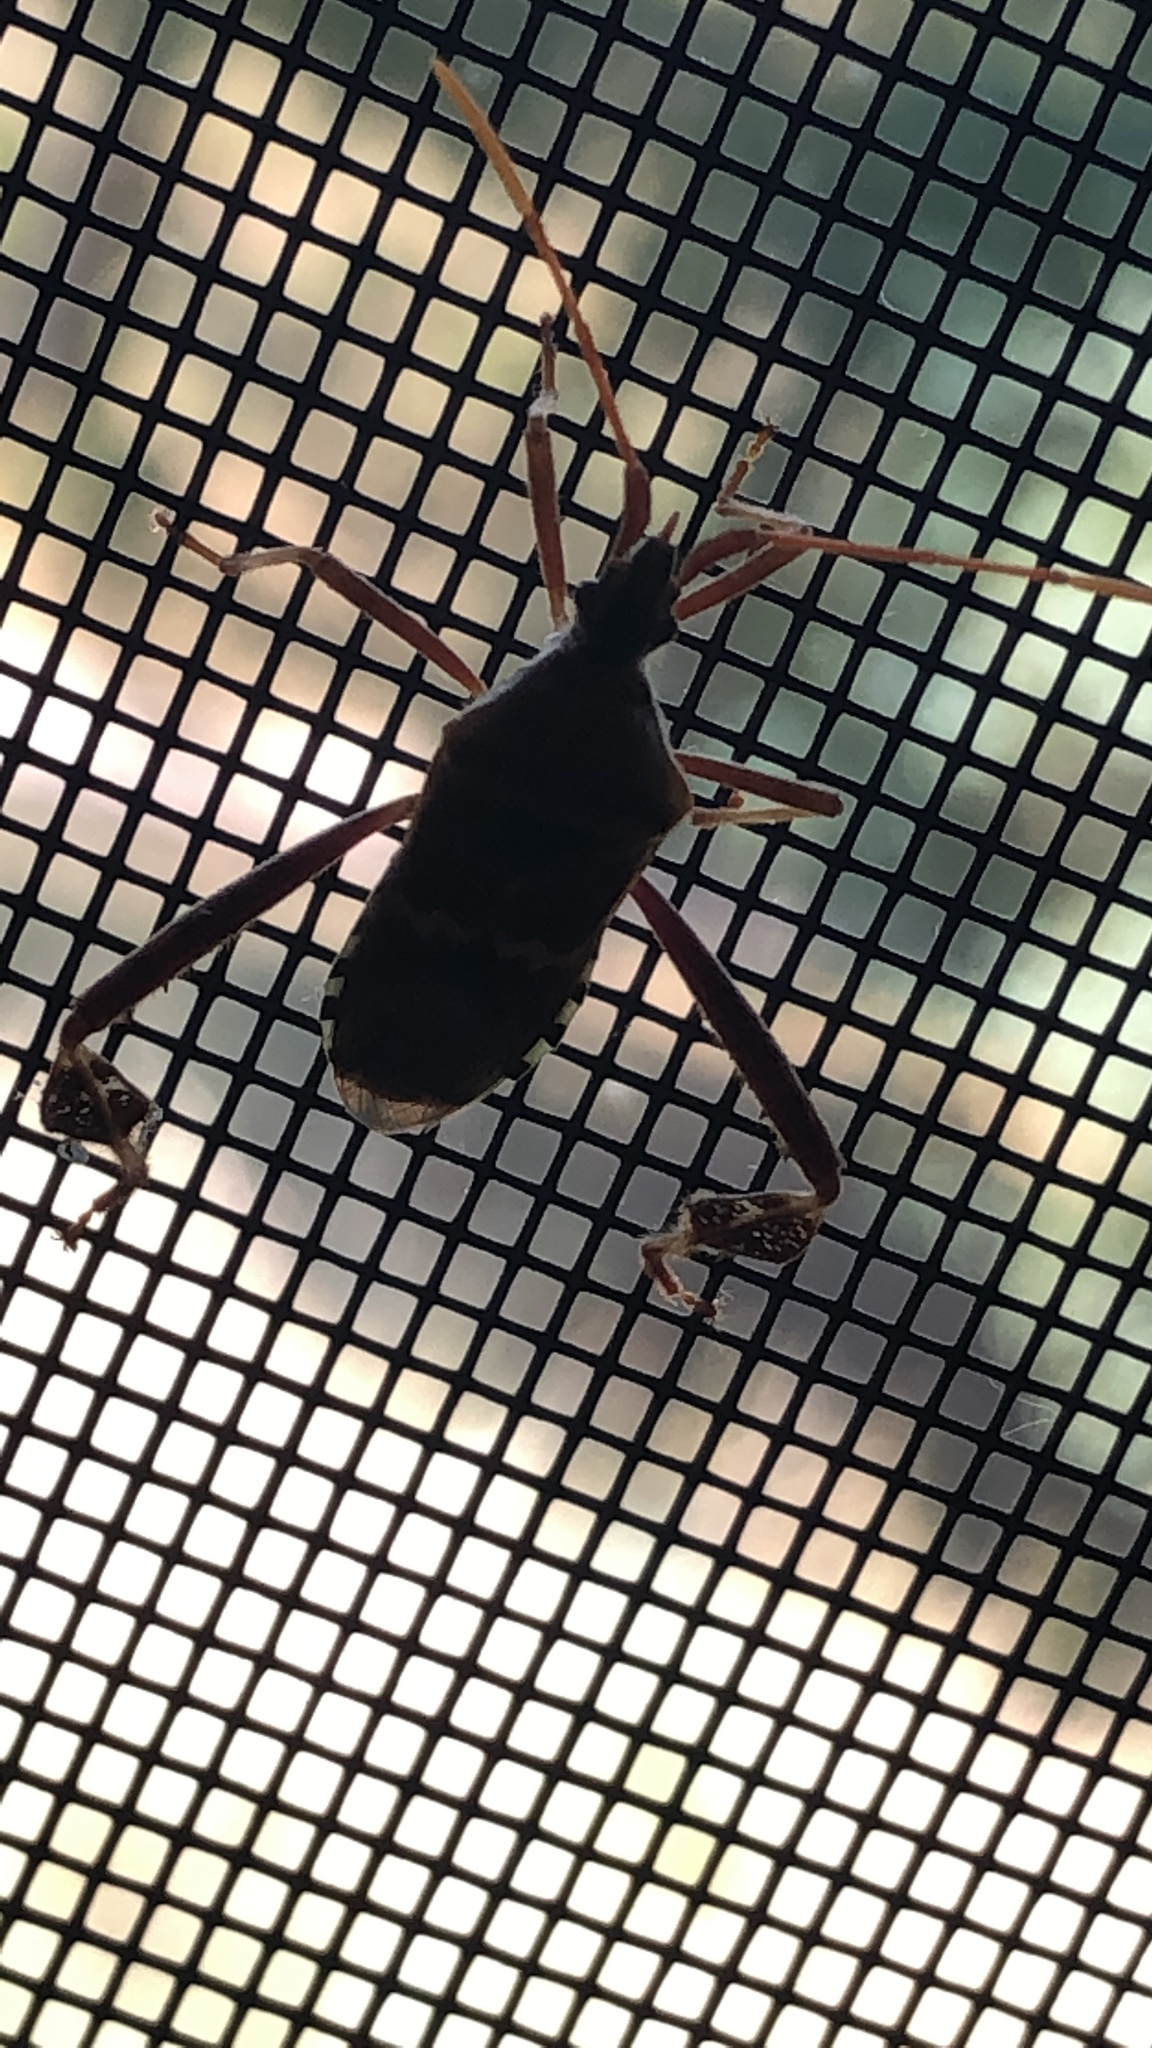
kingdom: Animalia
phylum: Arthropoda
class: Insecta
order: Hemiptera
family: Coreidae
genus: Leptoglossus
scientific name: Leptoglossus clypealis
